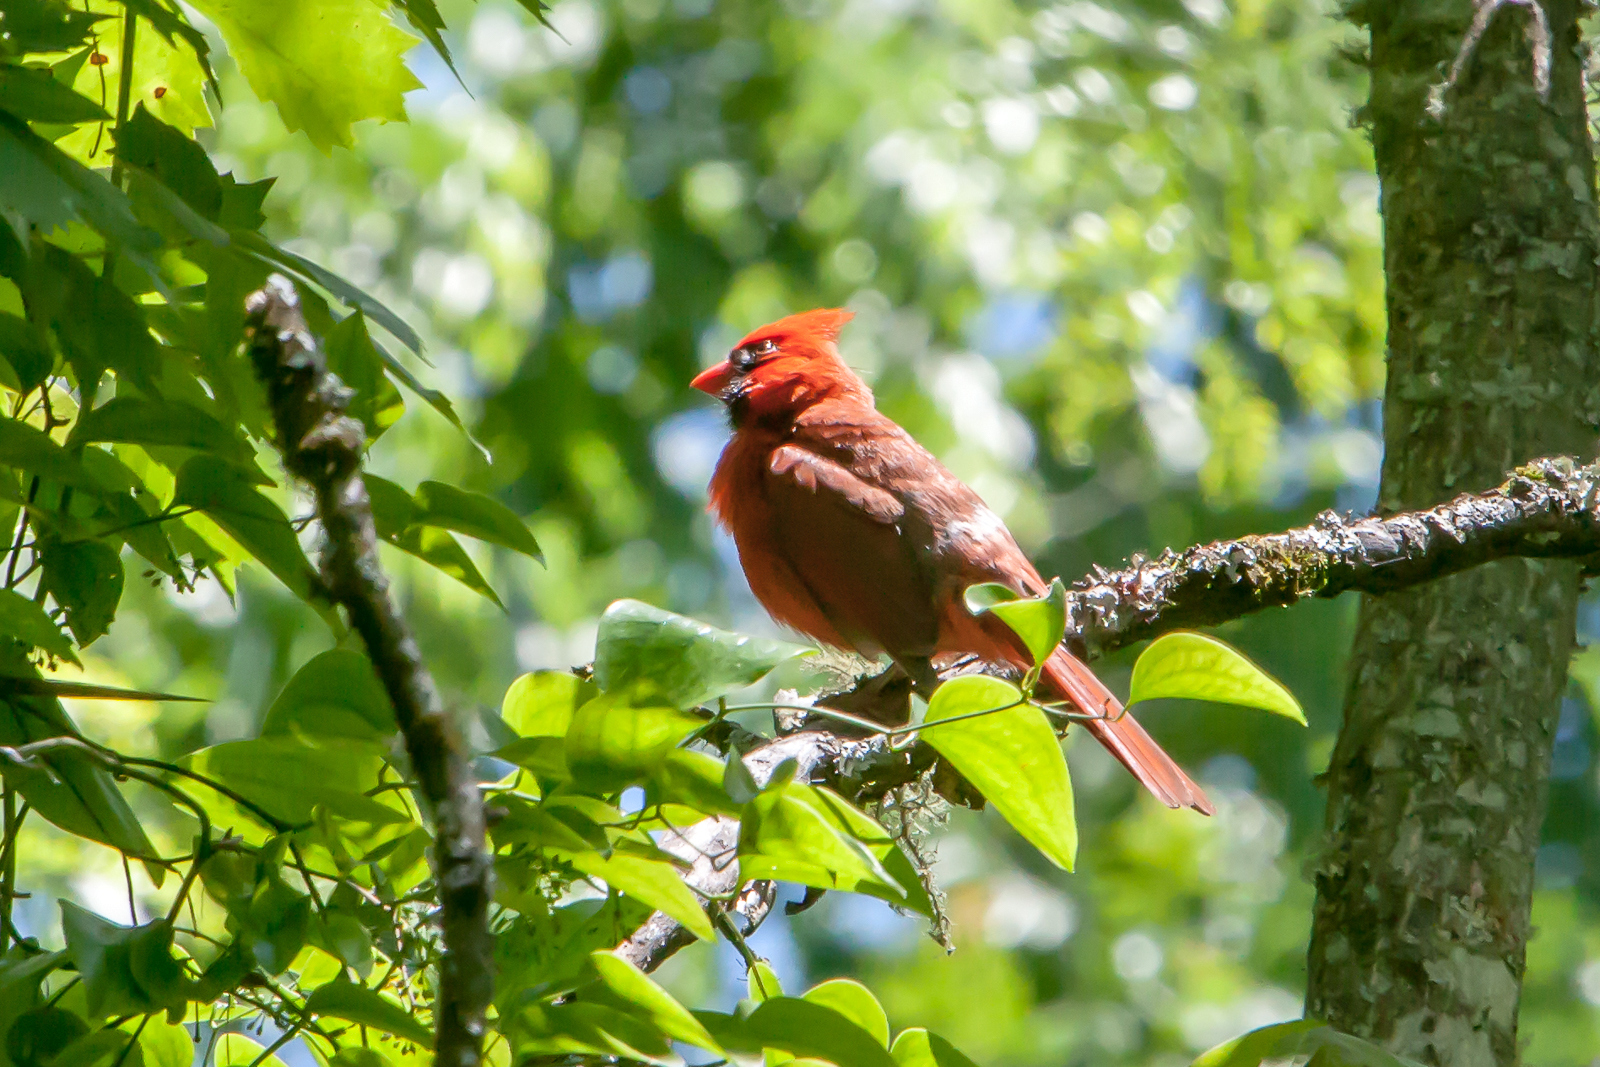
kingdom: Animalia
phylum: Chordata
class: Aves
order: Passeriformes
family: Cardinalidae
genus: Cardinalis
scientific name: Cardinalis cardinalis
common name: Northern cardinal
